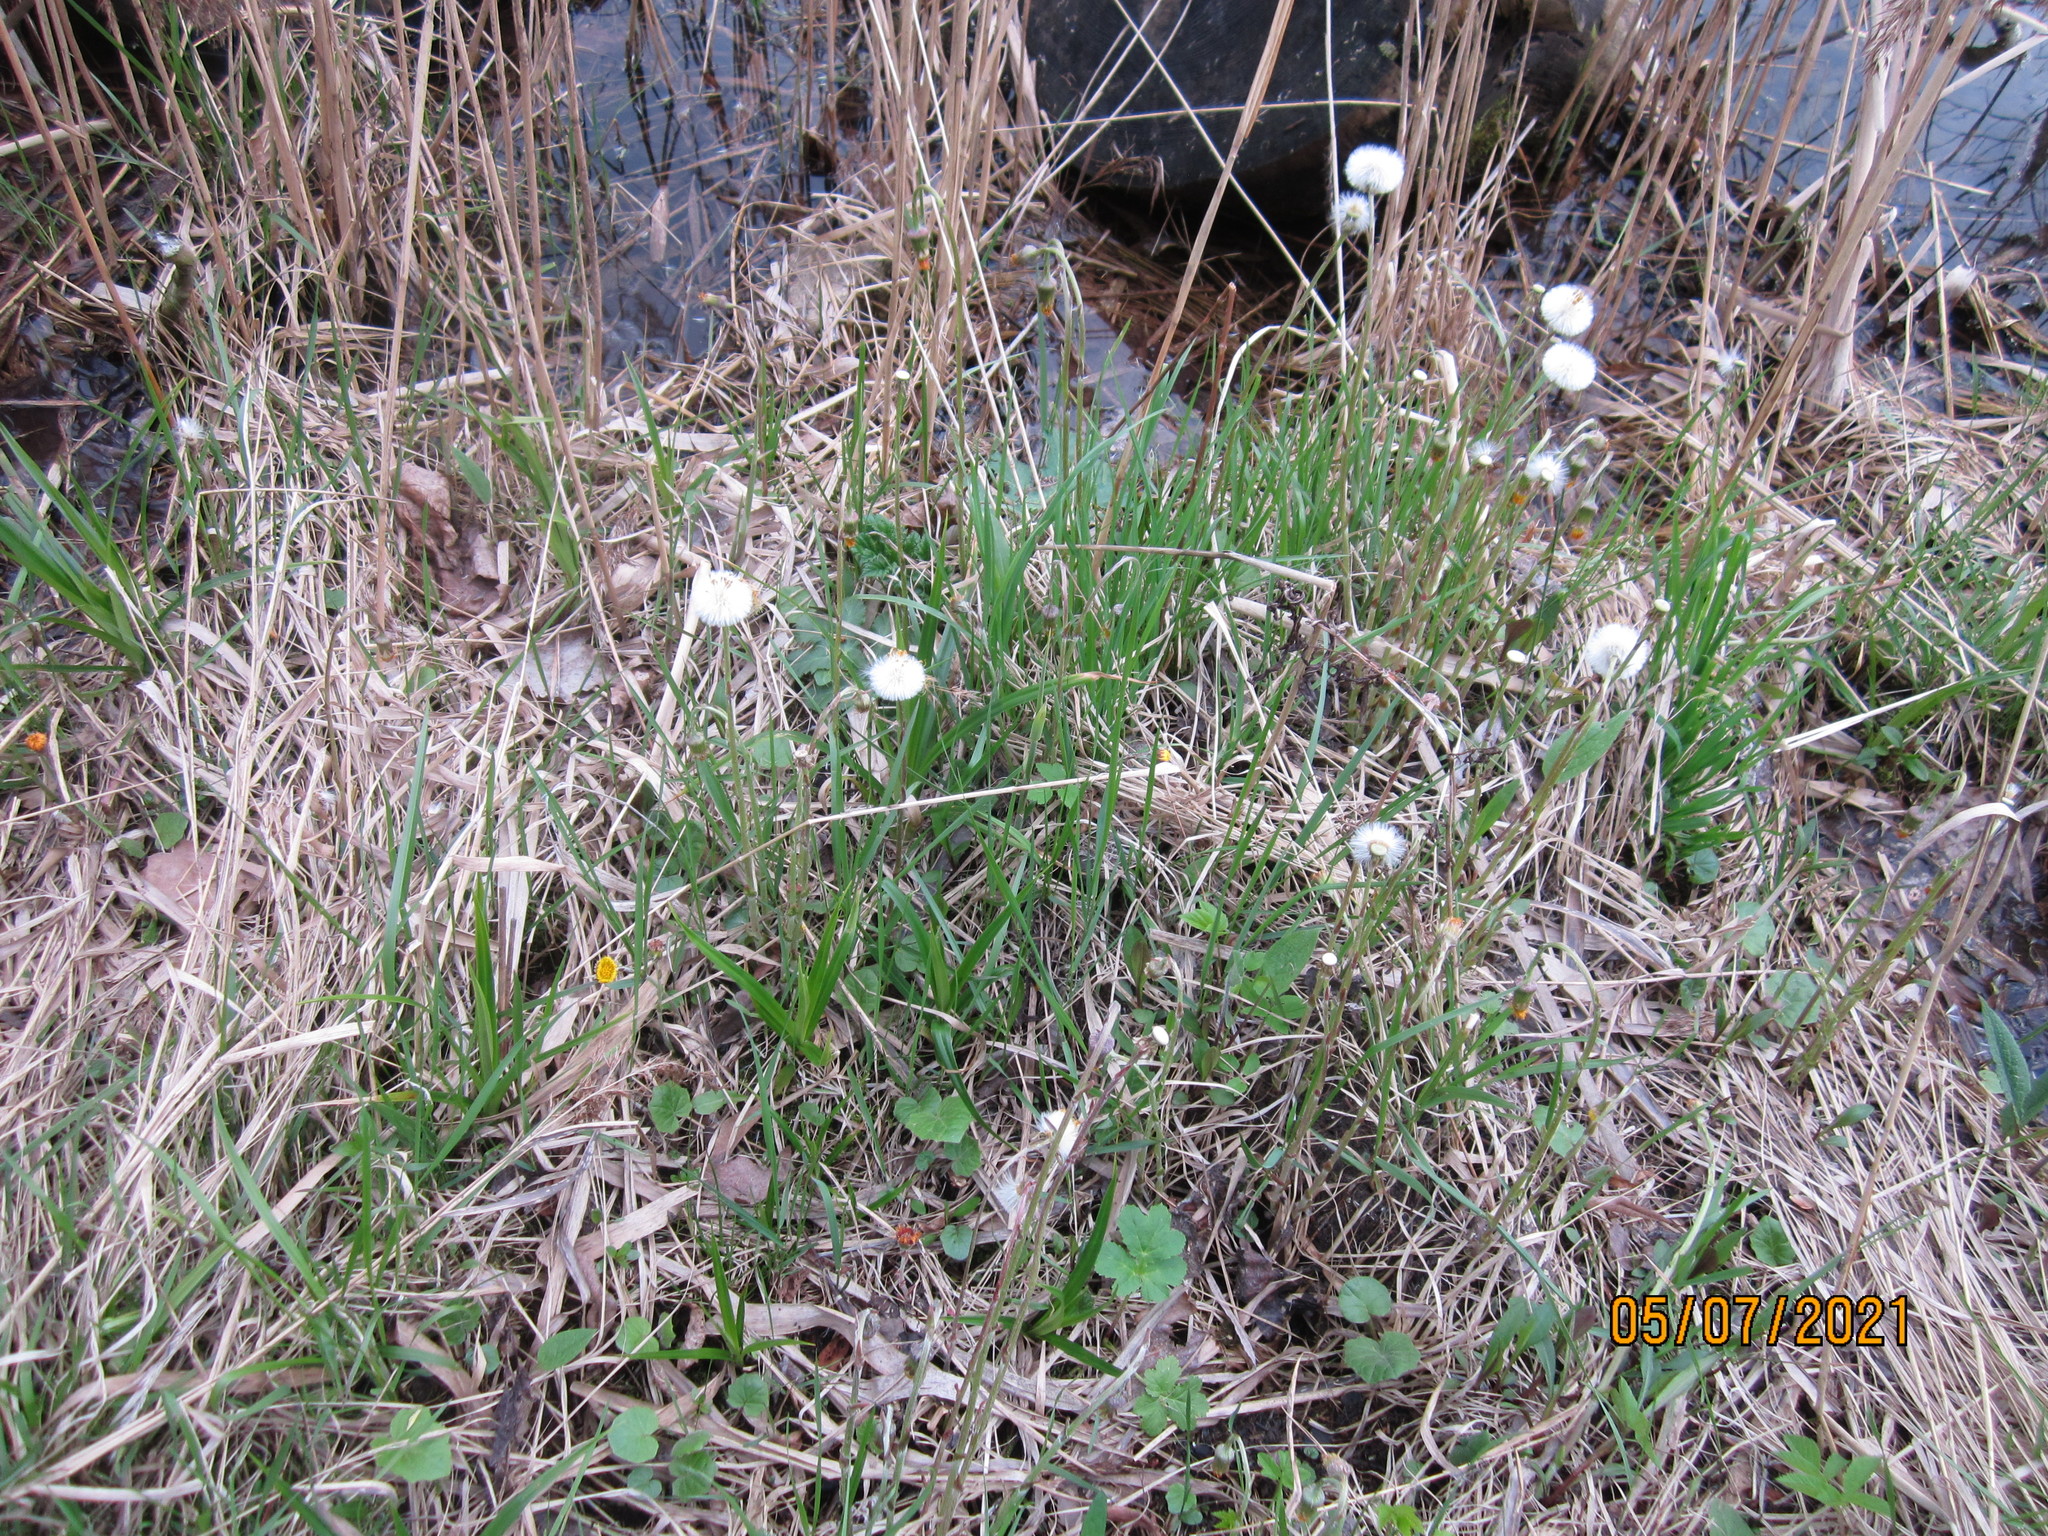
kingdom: Plantae
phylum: Tracheophyta
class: Magnoliopsida
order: Asterales
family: Asteraceae
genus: Tussilago
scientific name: Tussilago farfara
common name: Coltsfoot
